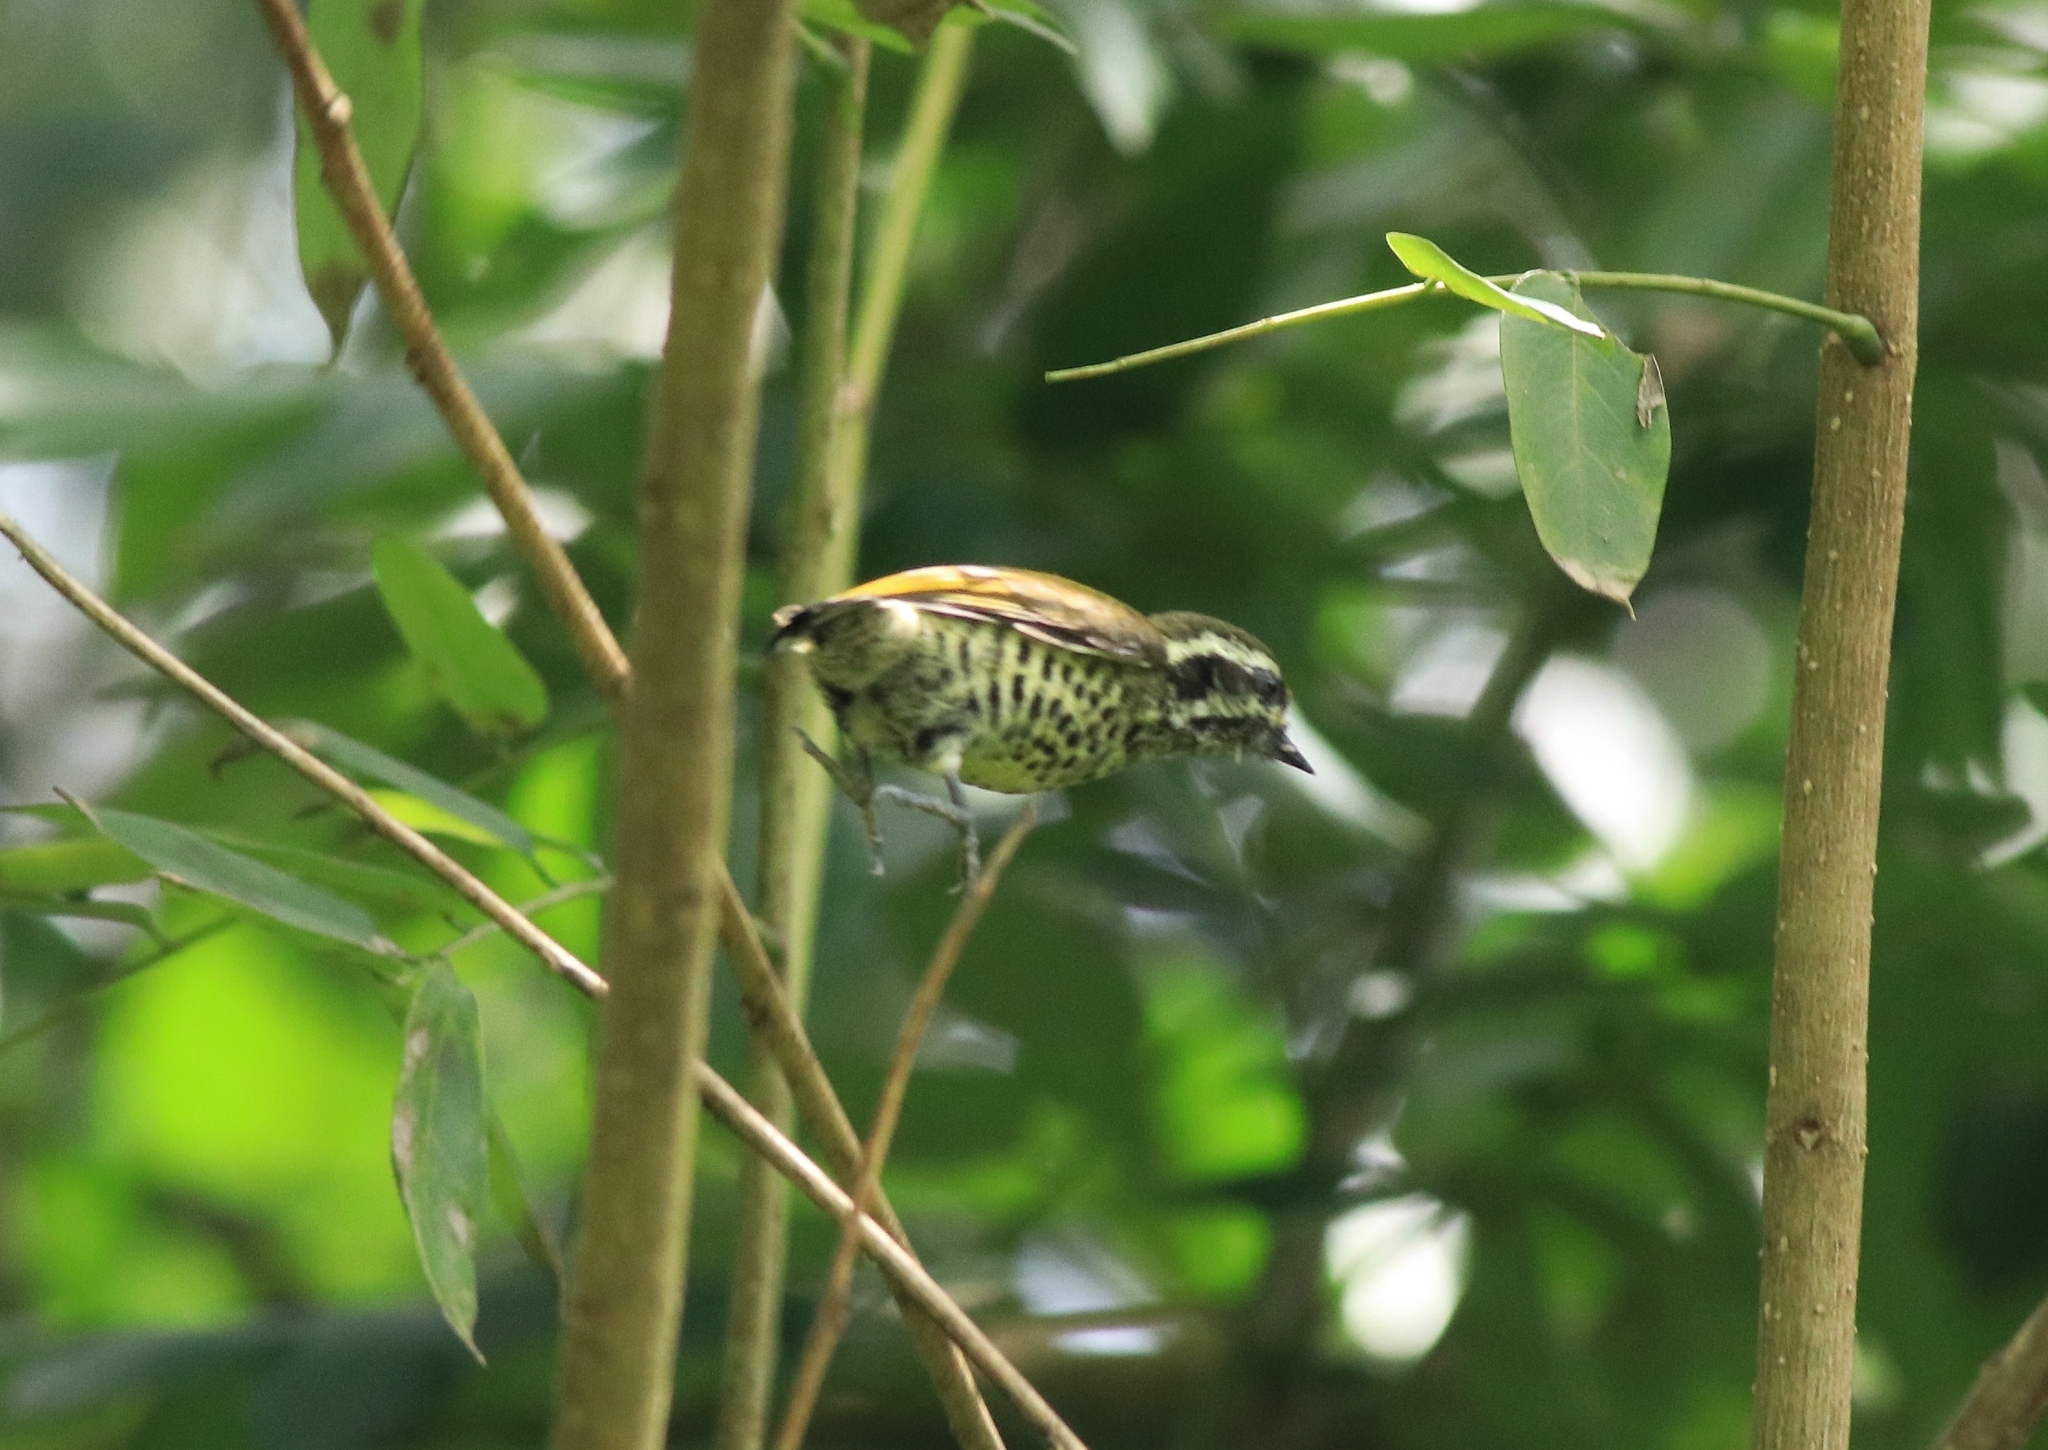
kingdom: Animalia
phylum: Chordata
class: Aves
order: Piciformes
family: Picidae
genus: Picumnus
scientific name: Picumnus innominatus
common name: Speckled piculet
